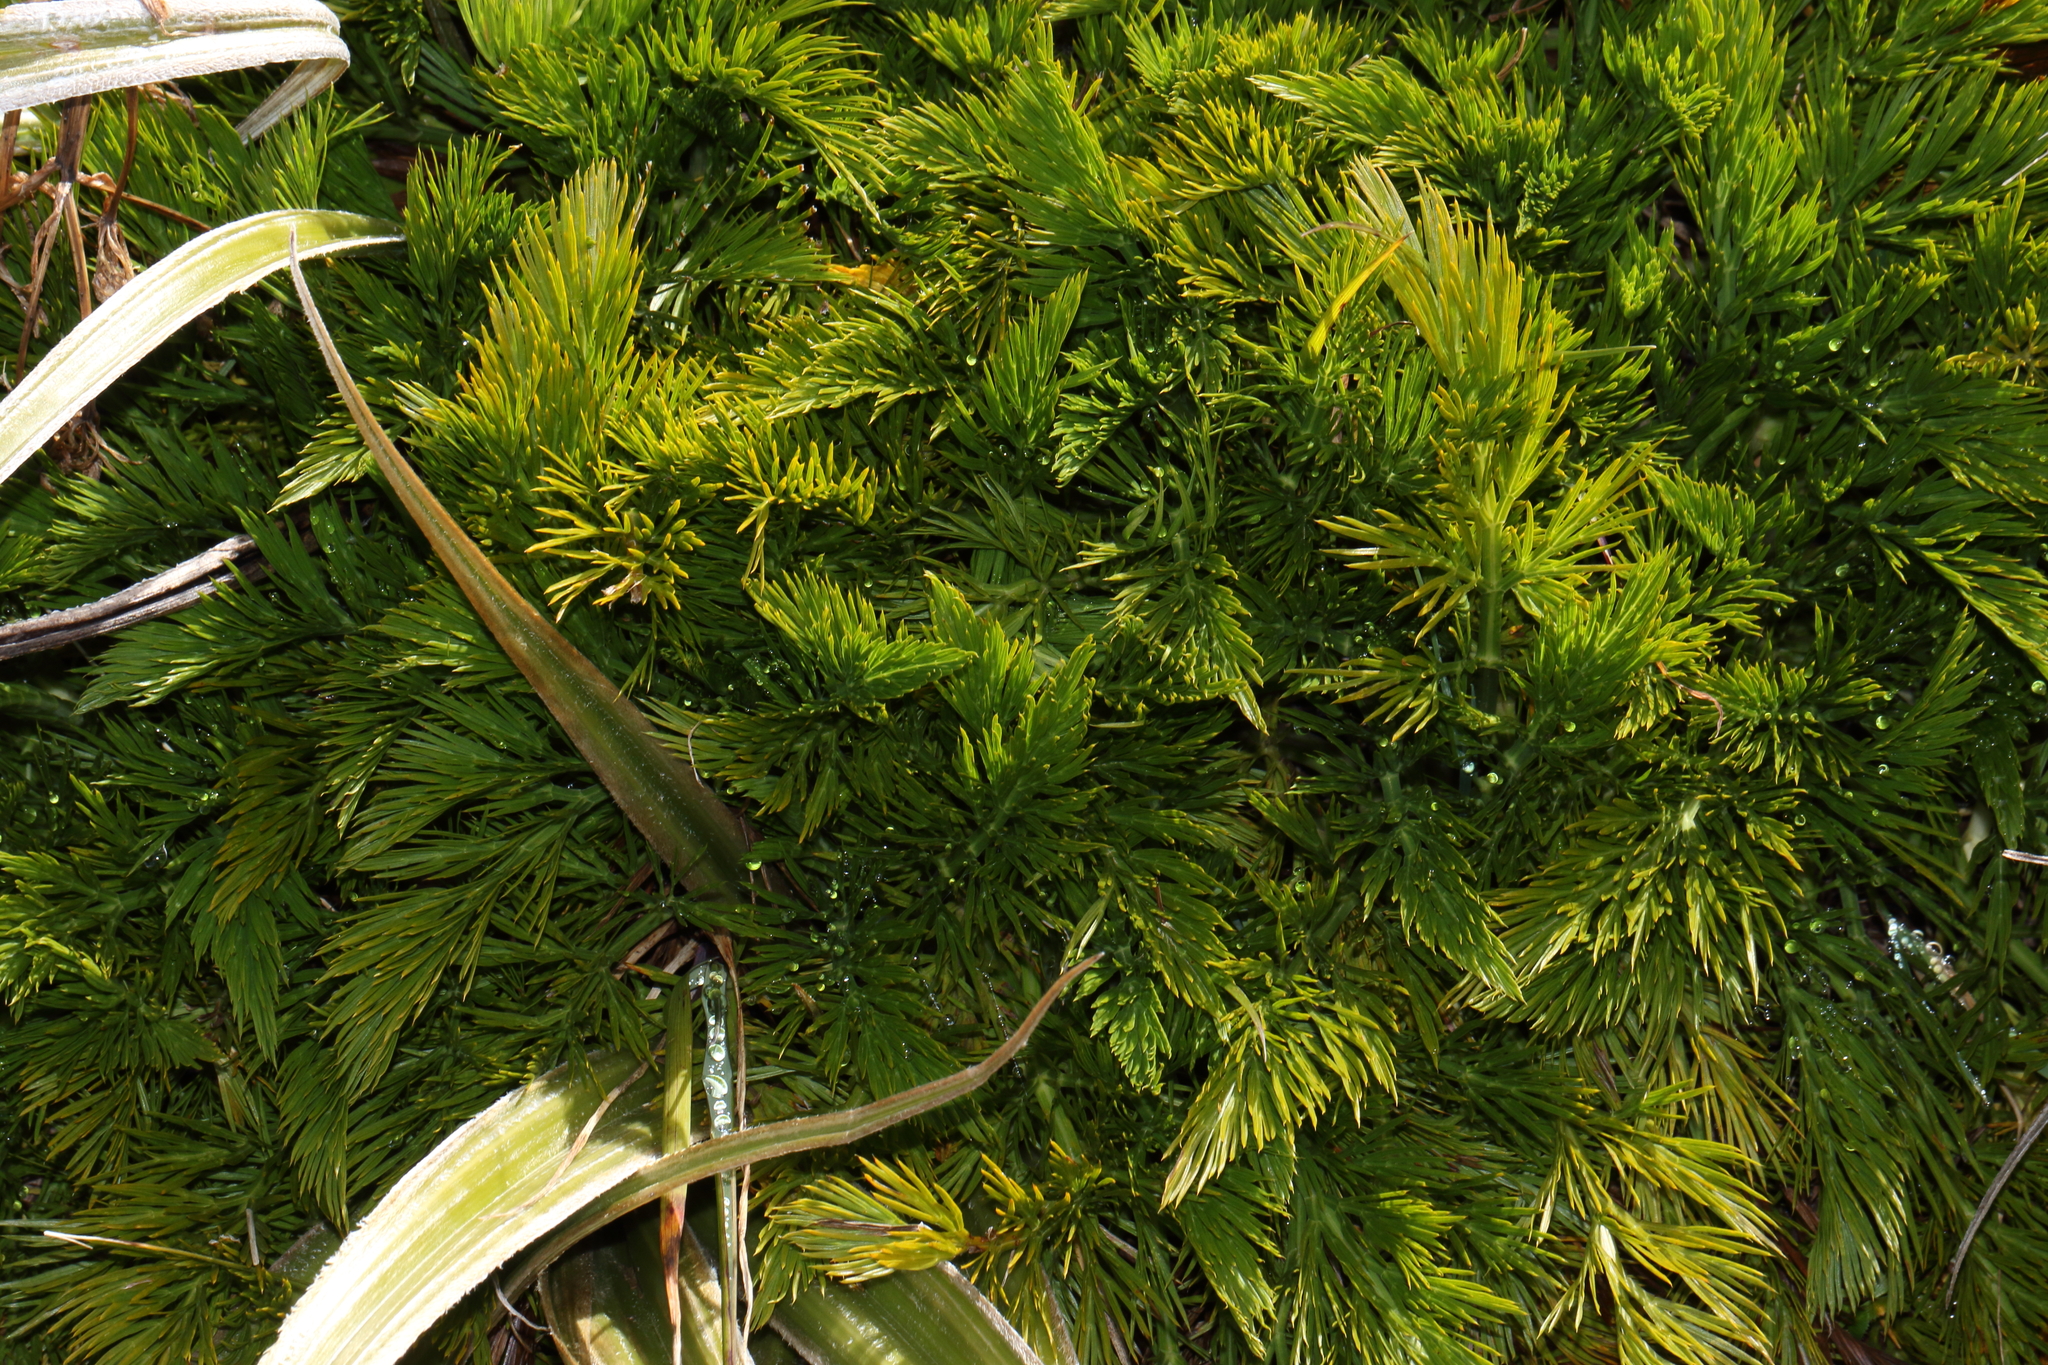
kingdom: Plantae
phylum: Tracheophyta
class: Magnoliopsida
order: Apiales
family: Apiaceae
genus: Aciphylla
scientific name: Aciphylla dissecta
